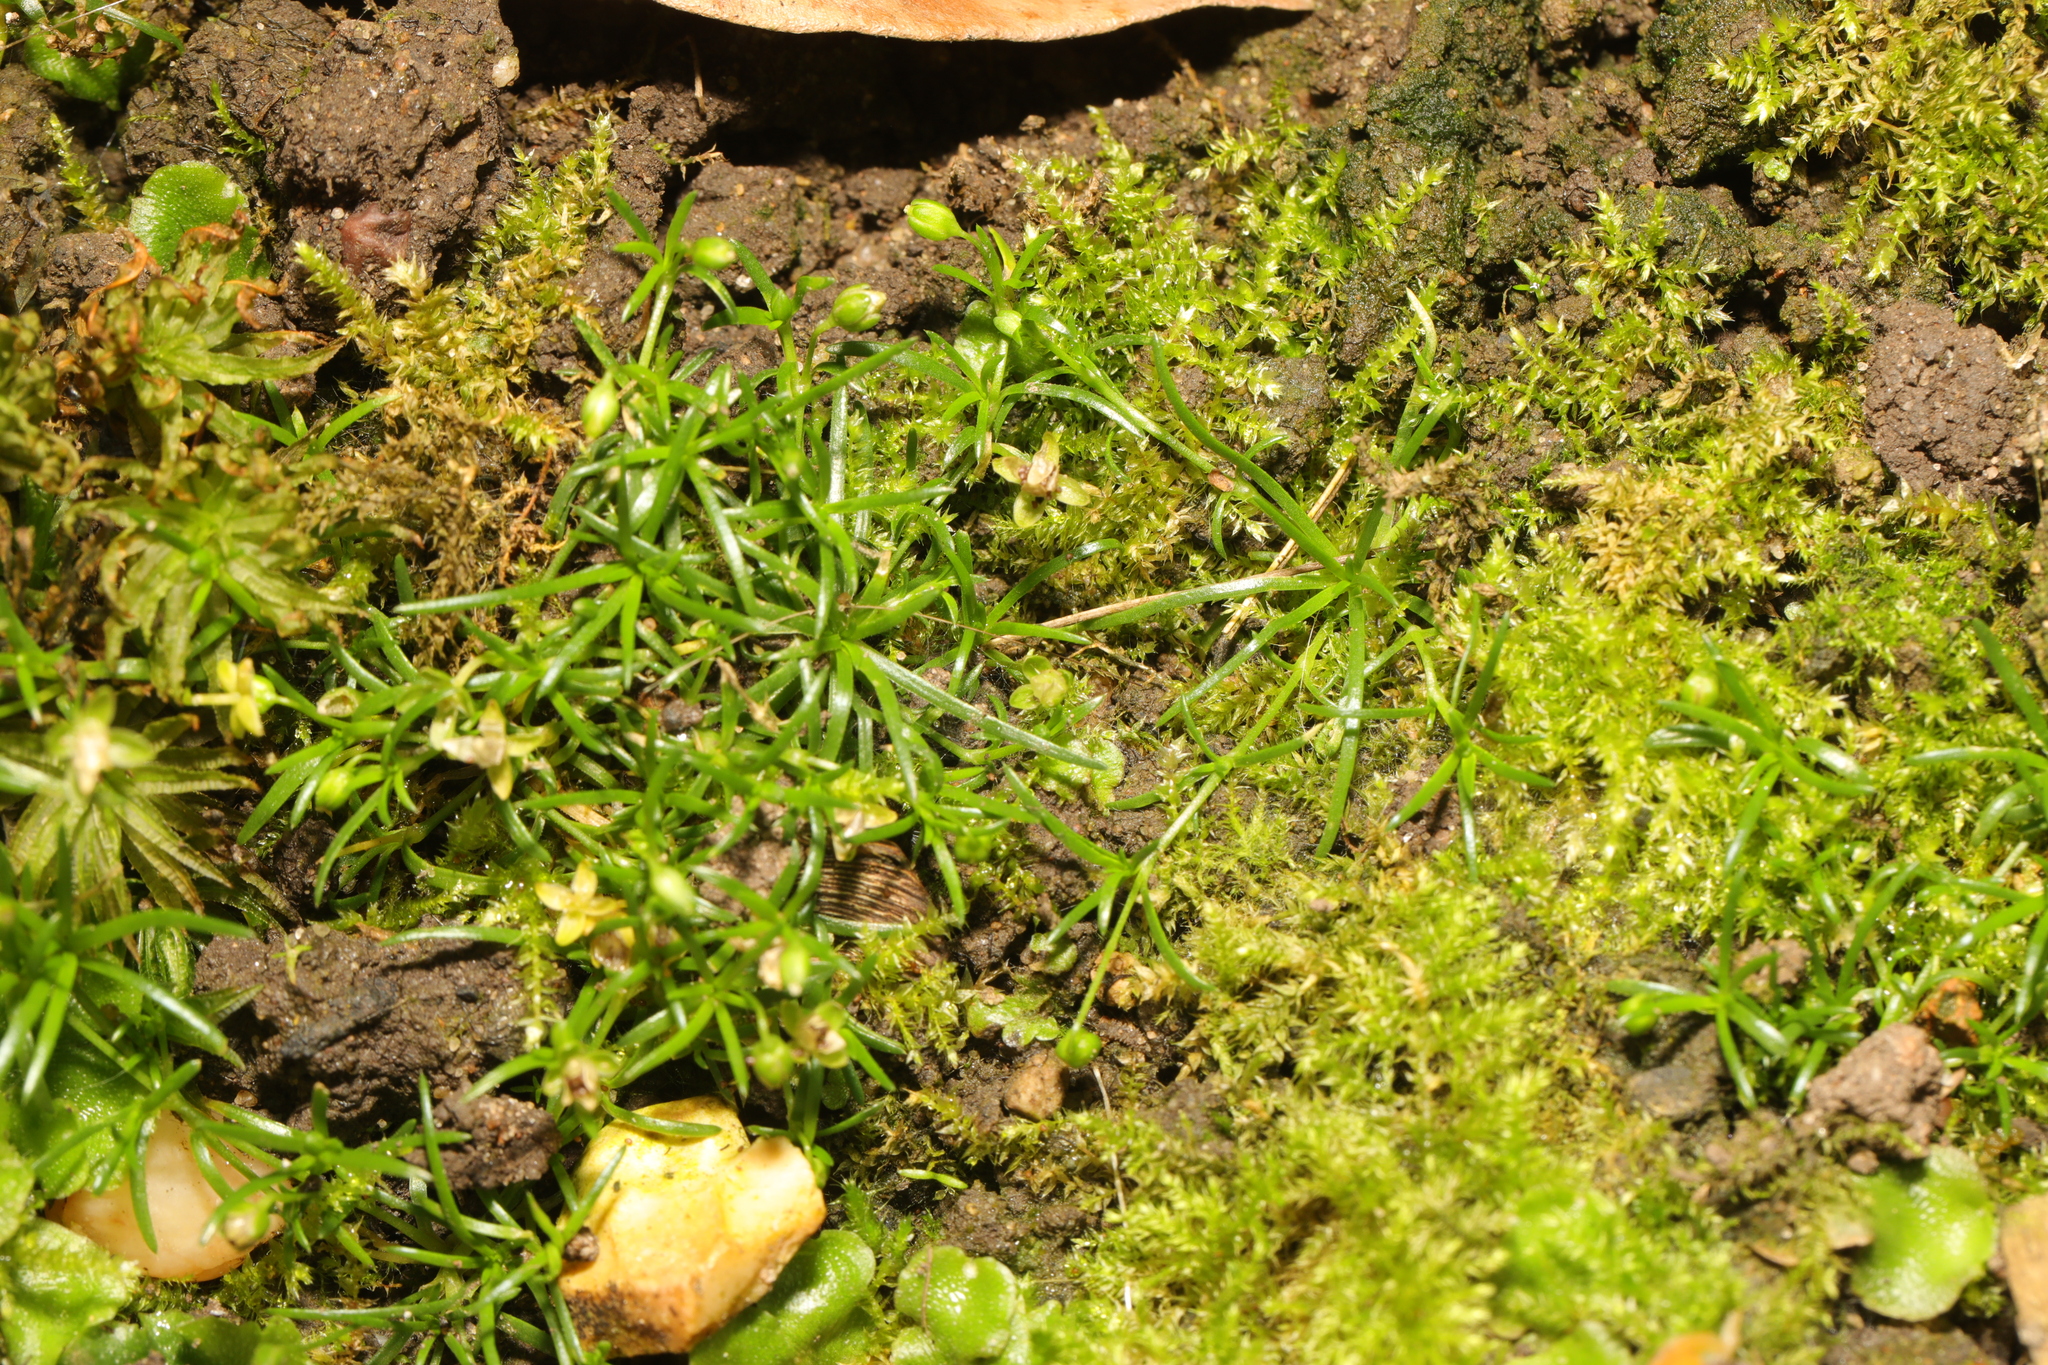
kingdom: Plantae
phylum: Tracheophyta
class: Magnoliopsida
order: Caryophyllales
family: Caryophyllaceae
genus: Sagina
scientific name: Sagina procumbens
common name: Procumbent pearlwort
